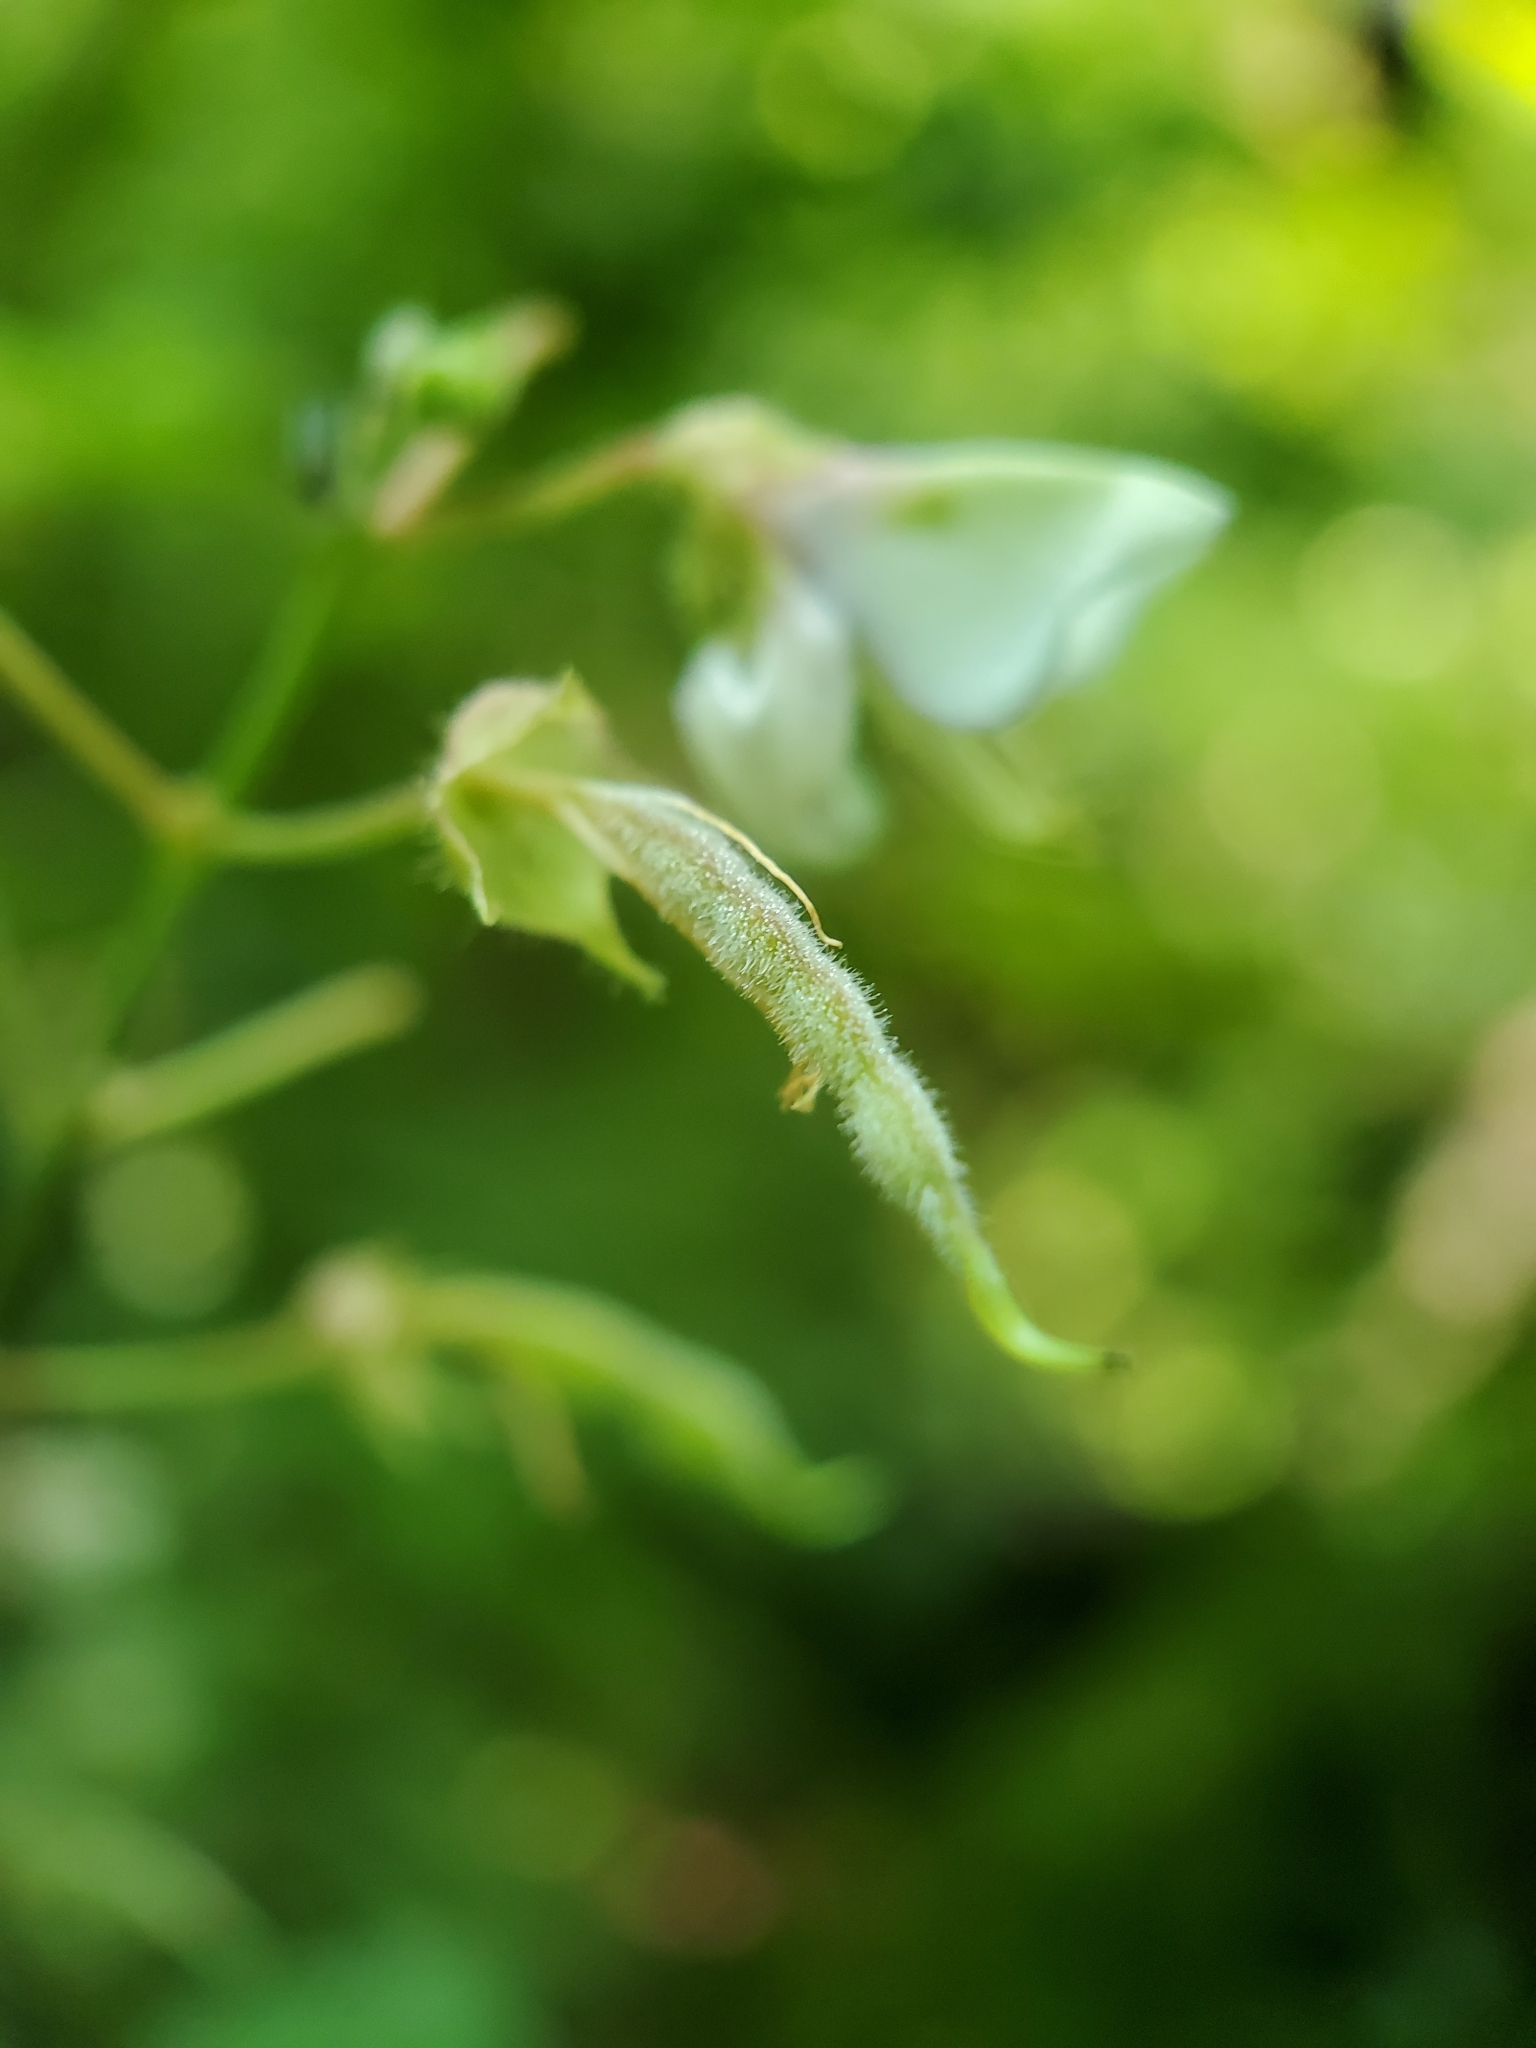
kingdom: Plantae
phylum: Tracheophyta
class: Magnoliopsida
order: Fabales
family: Fabaceae
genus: Desmodium
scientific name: Desmodium perplexum
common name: Perplexed tick trefoil
